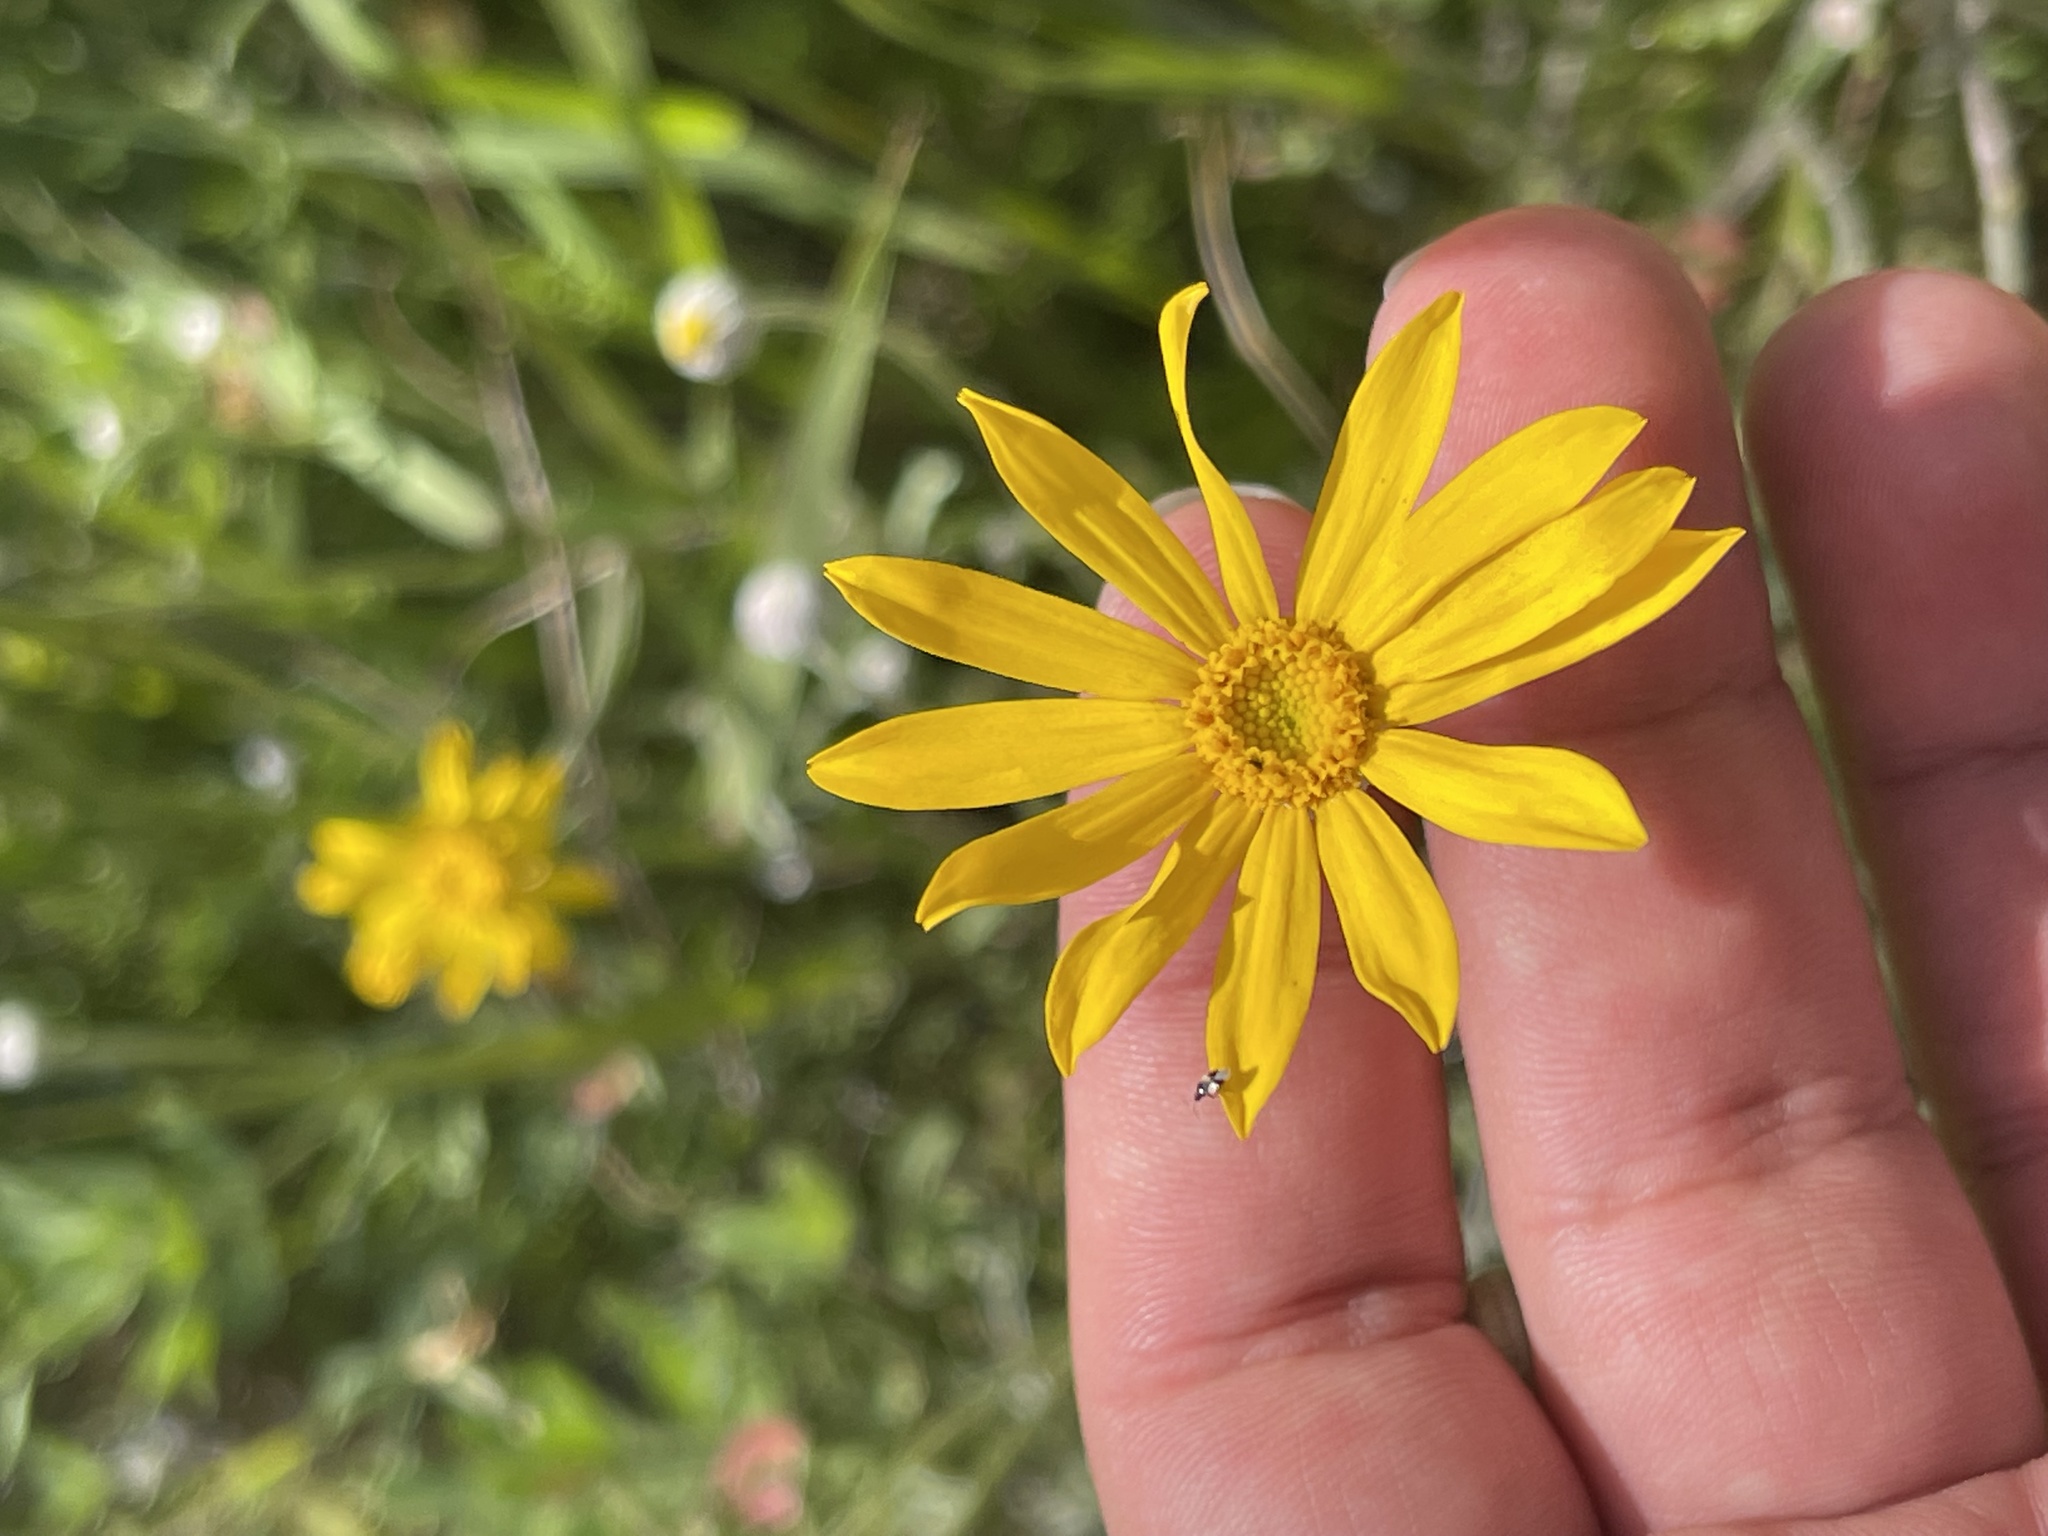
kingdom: Plantae
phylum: Tracheophyta
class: Magnoliopsida
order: Asterales
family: Asteraceae
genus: Eriophyllum
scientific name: Eriophyllum lanatum
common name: Common woolly-sunflower
